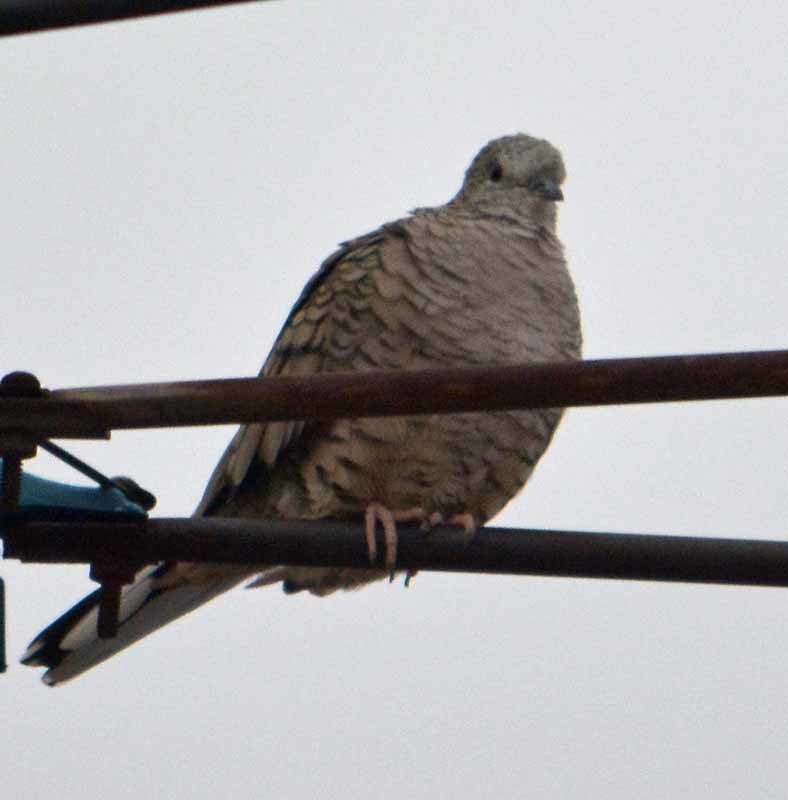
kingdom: Animalia
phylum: Chordata
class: Aves
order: Columbiformes
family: Columbidae
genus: Columbina
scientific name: Columbina inca
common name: Inca dove
